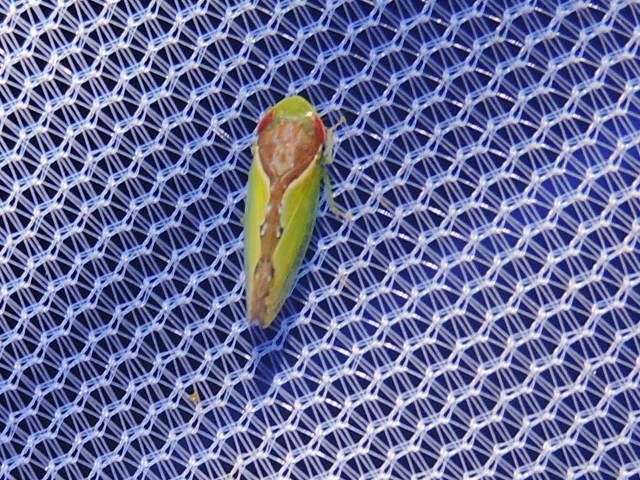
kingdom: Animalia
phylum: Arthropoda
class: Insecta
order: Hemiptera
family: Cicadellidae
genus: Omansobara ing
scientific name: Omansobara ing Omansobara palliolata
